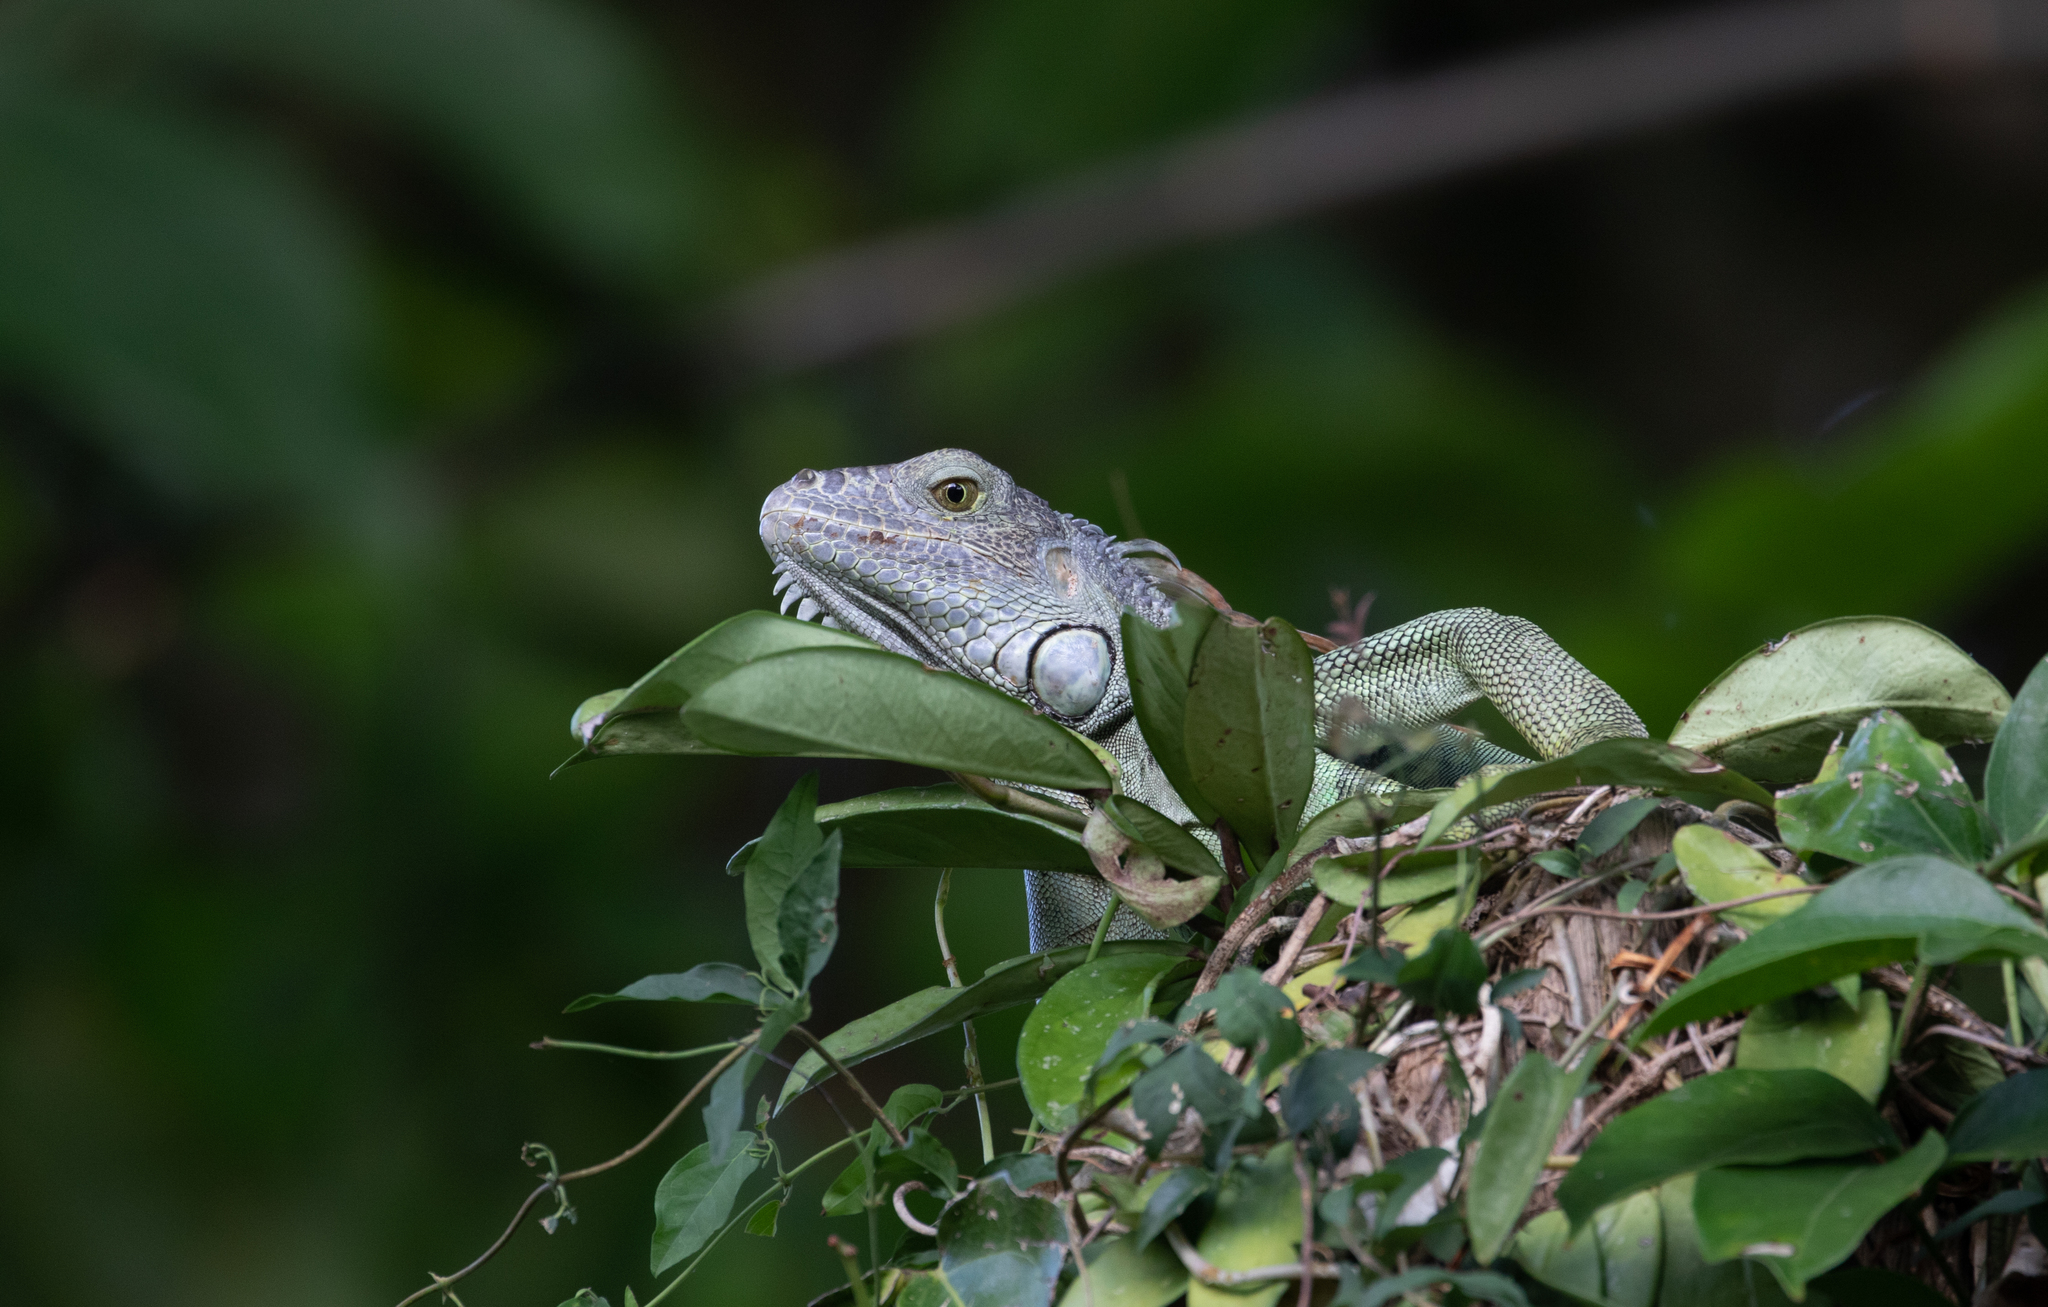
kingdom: Animalia
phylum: Chordata
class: Squamata
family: Iguanidae
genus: Iguana
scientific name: Iguana iguana
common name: Green iguana
